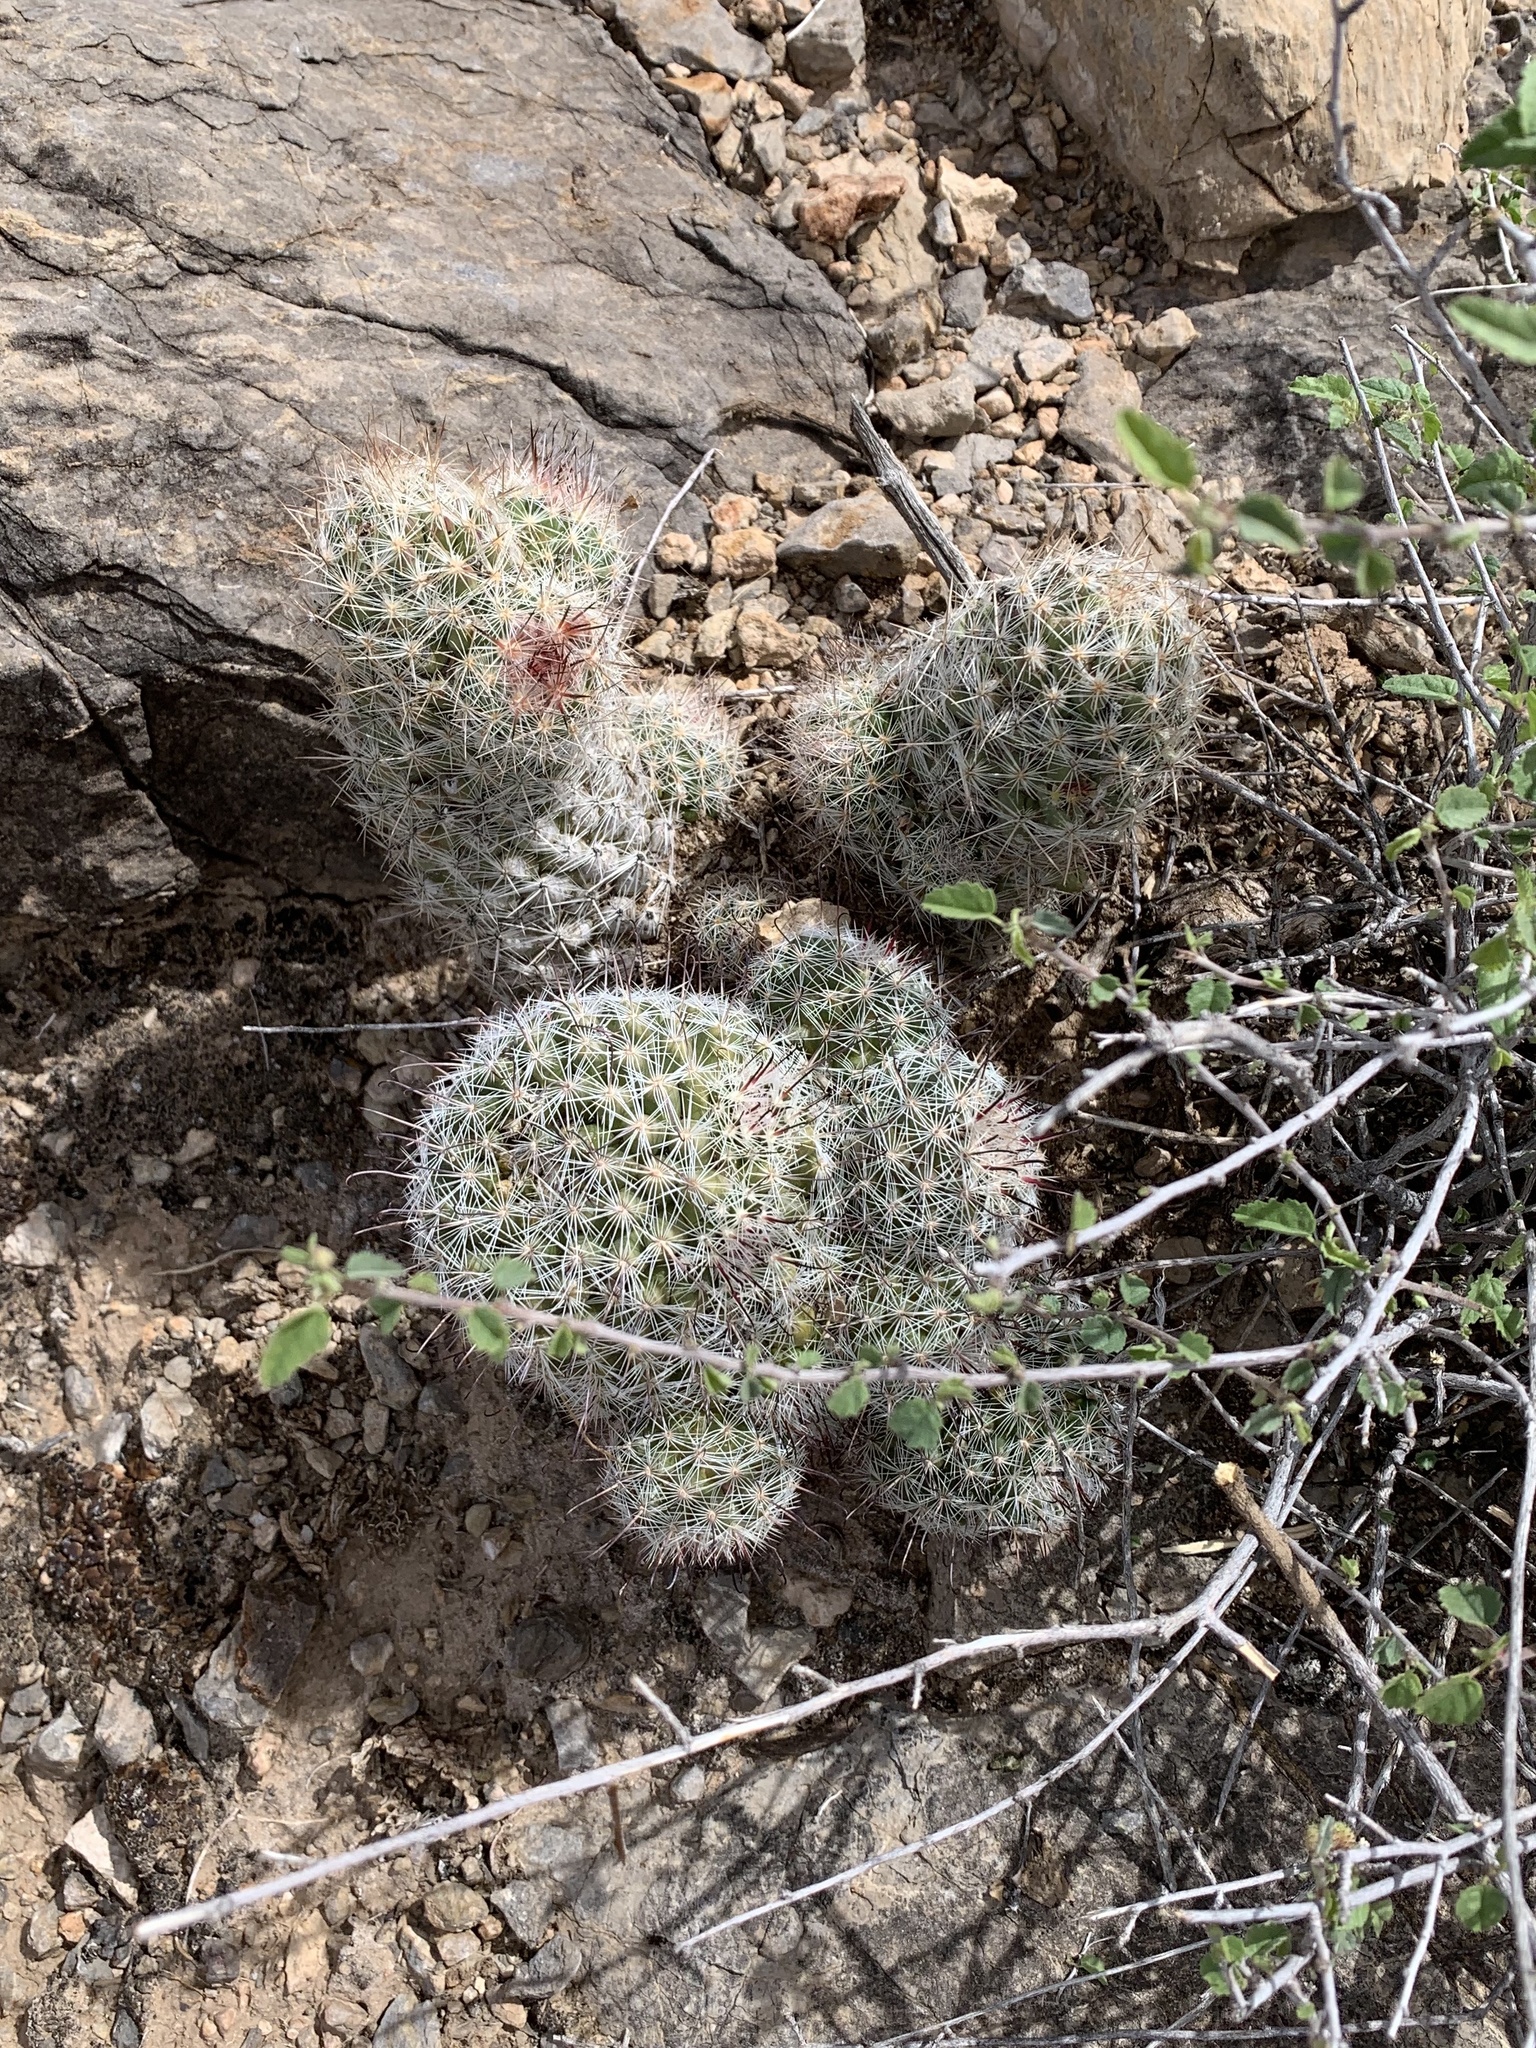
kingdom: Plantae
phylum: Tracheophyta
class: Magnoliopsida
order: Caryophyllales
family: Cactaceae
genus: Cochemiea
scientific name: Cochemiea grahamii
